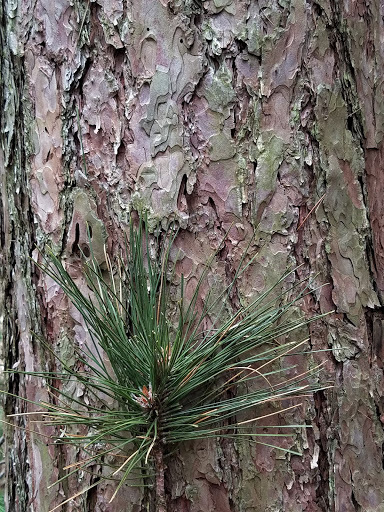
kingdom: Plantae
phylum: Tracheophyta
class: Pinopsida
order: Pinales
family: Pinaceae
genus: Pinus
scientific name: Pinus resinosa
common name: Norway pine
